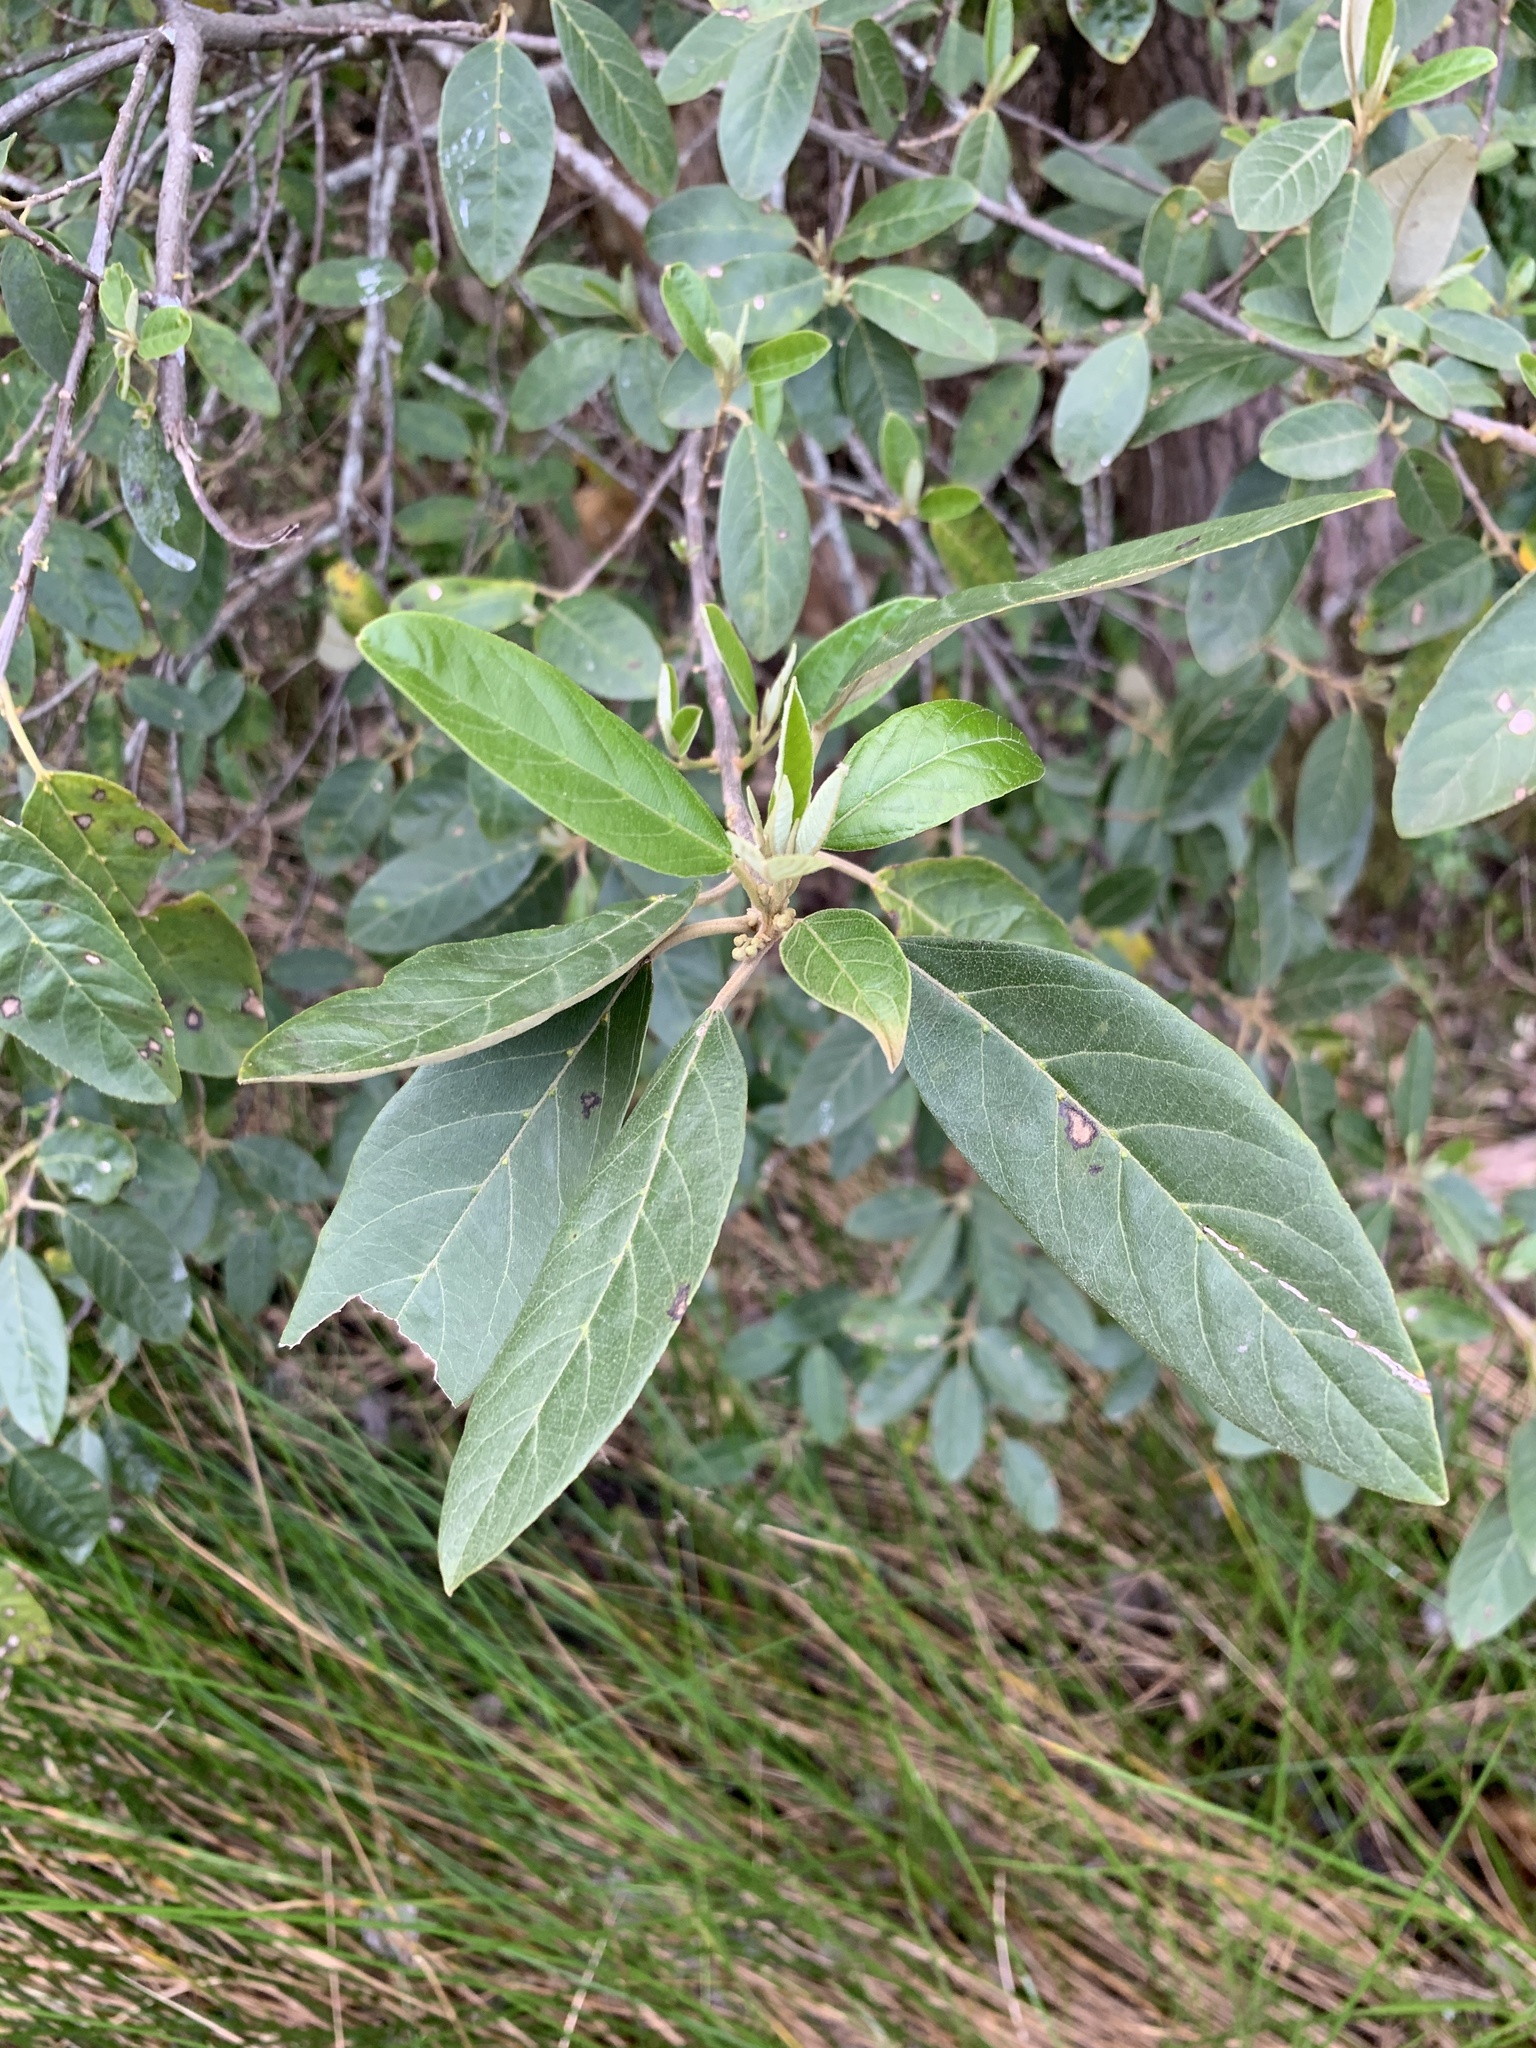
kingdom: Plantae
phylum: Tracheophyta
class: Magnoliopsida
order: Malpighiales
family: Achariaceae
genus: Kiggelaria
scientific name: Kiggelaria africana
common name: Wild peach
